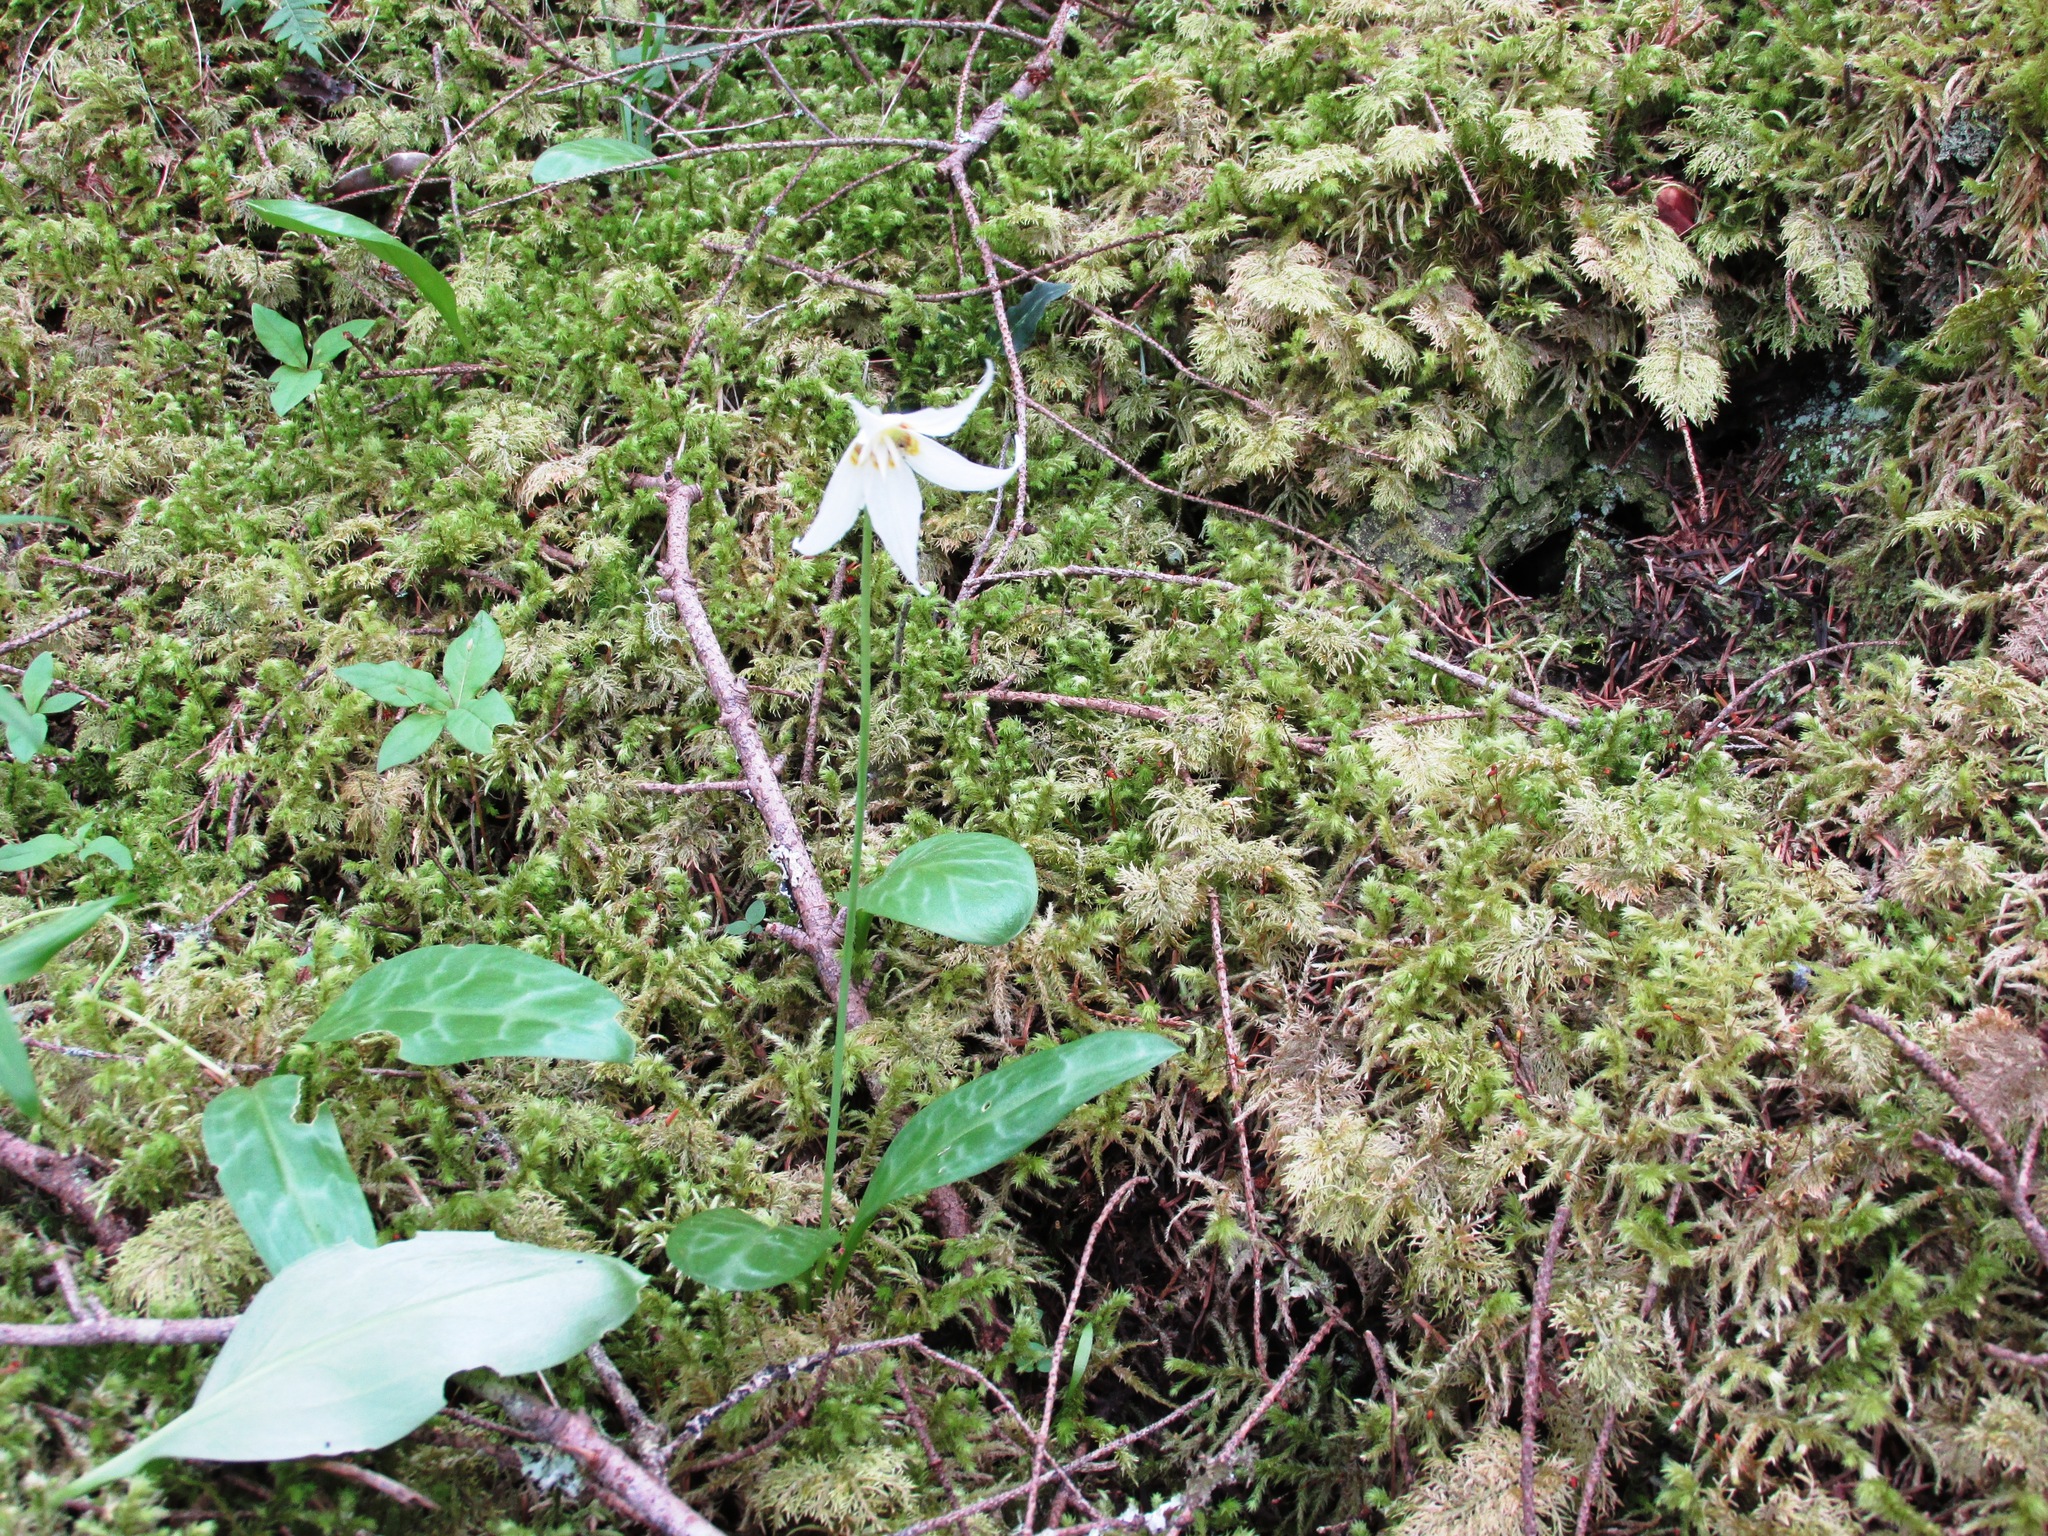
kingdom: Plantae
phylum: Tracheophyta
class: Liliopsida
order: Liliales
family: Liliaceae
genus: Erythronium
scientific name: Erythronium oregonum
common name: Giant adder's-tongue
